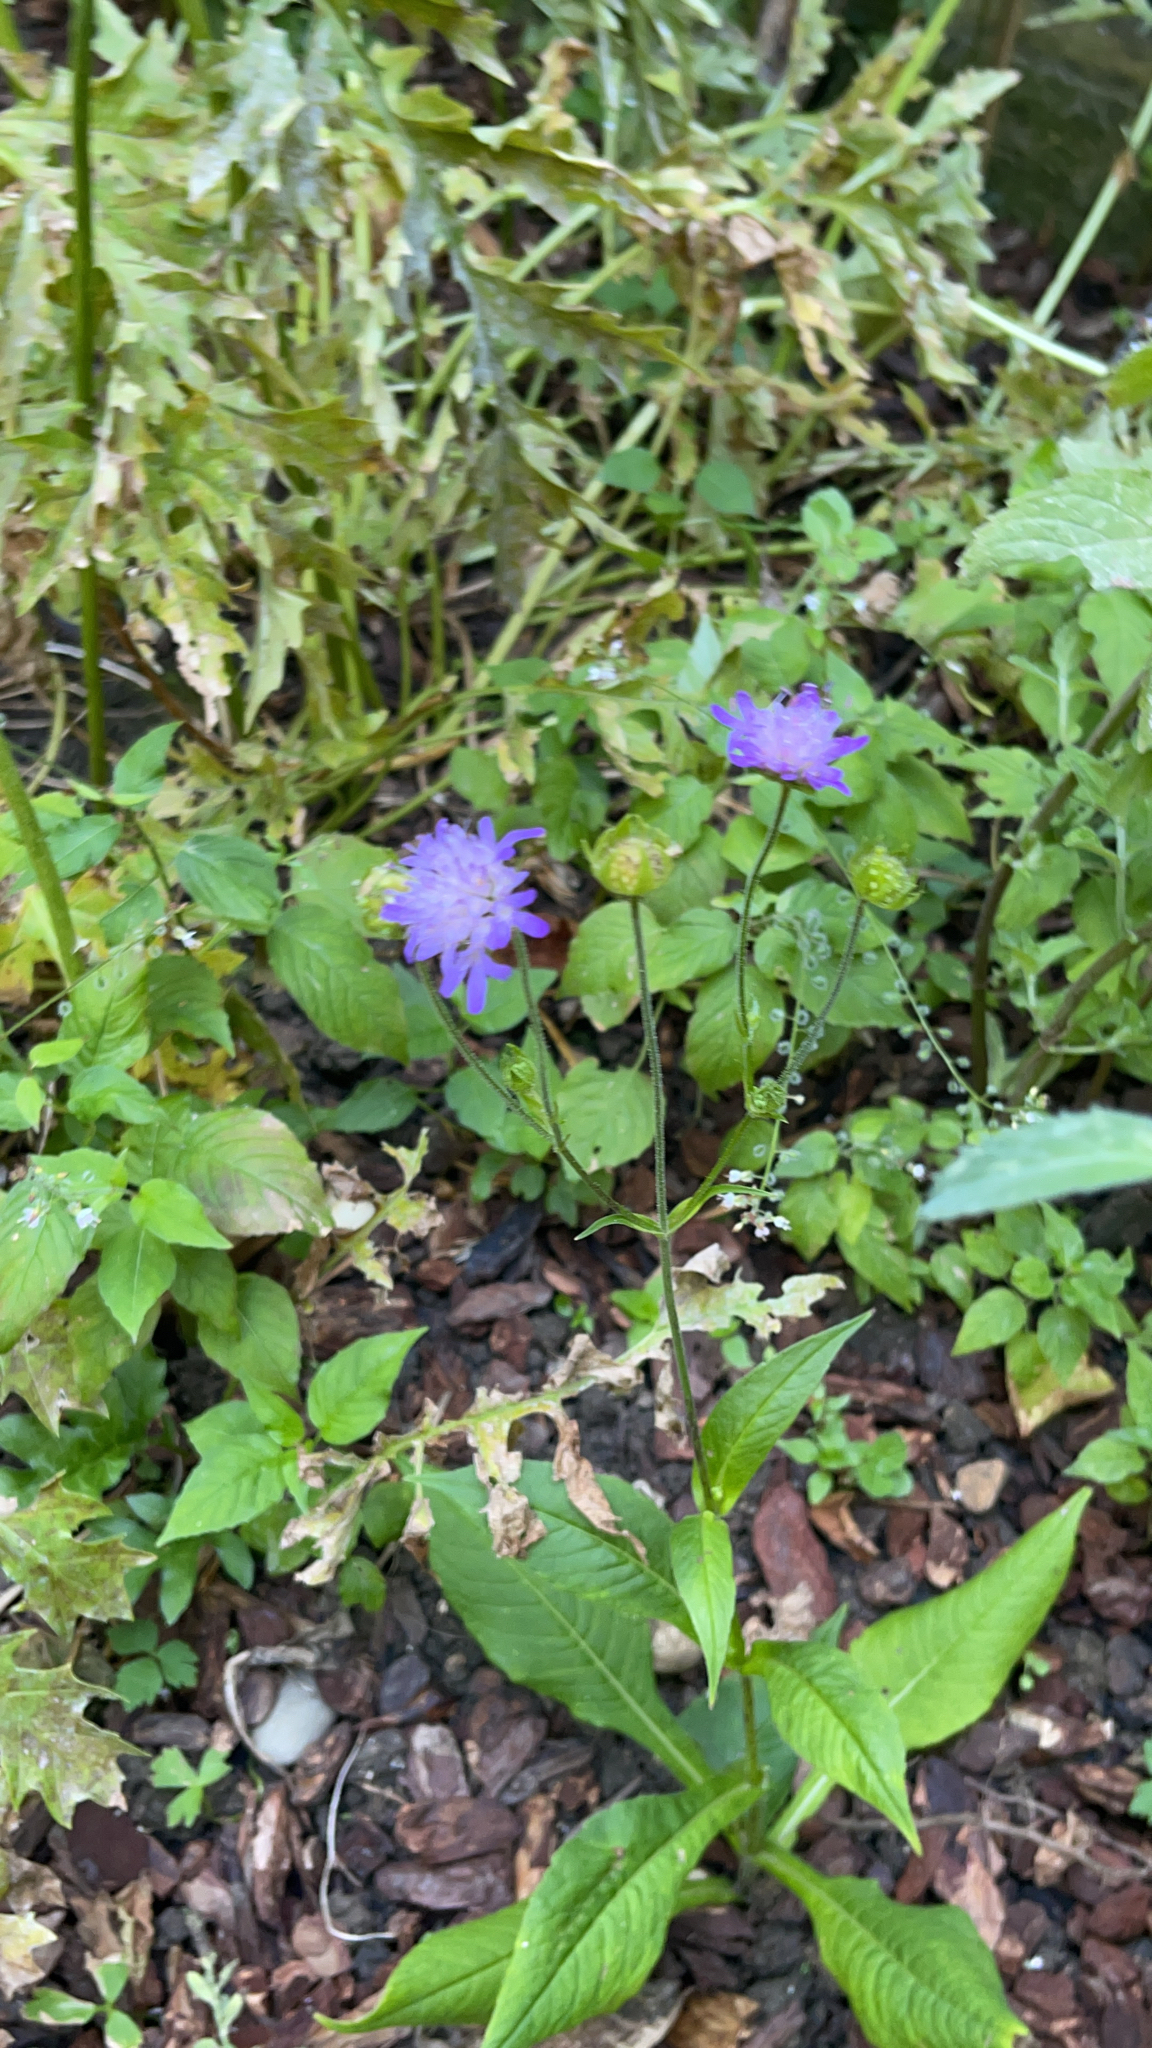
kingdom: Plantae
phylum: Tracheophyta
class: Magnoliopsida
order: Dipsacales
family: Caprifoliaceae
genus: Knautia
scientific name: Knautia dipsacifolia
